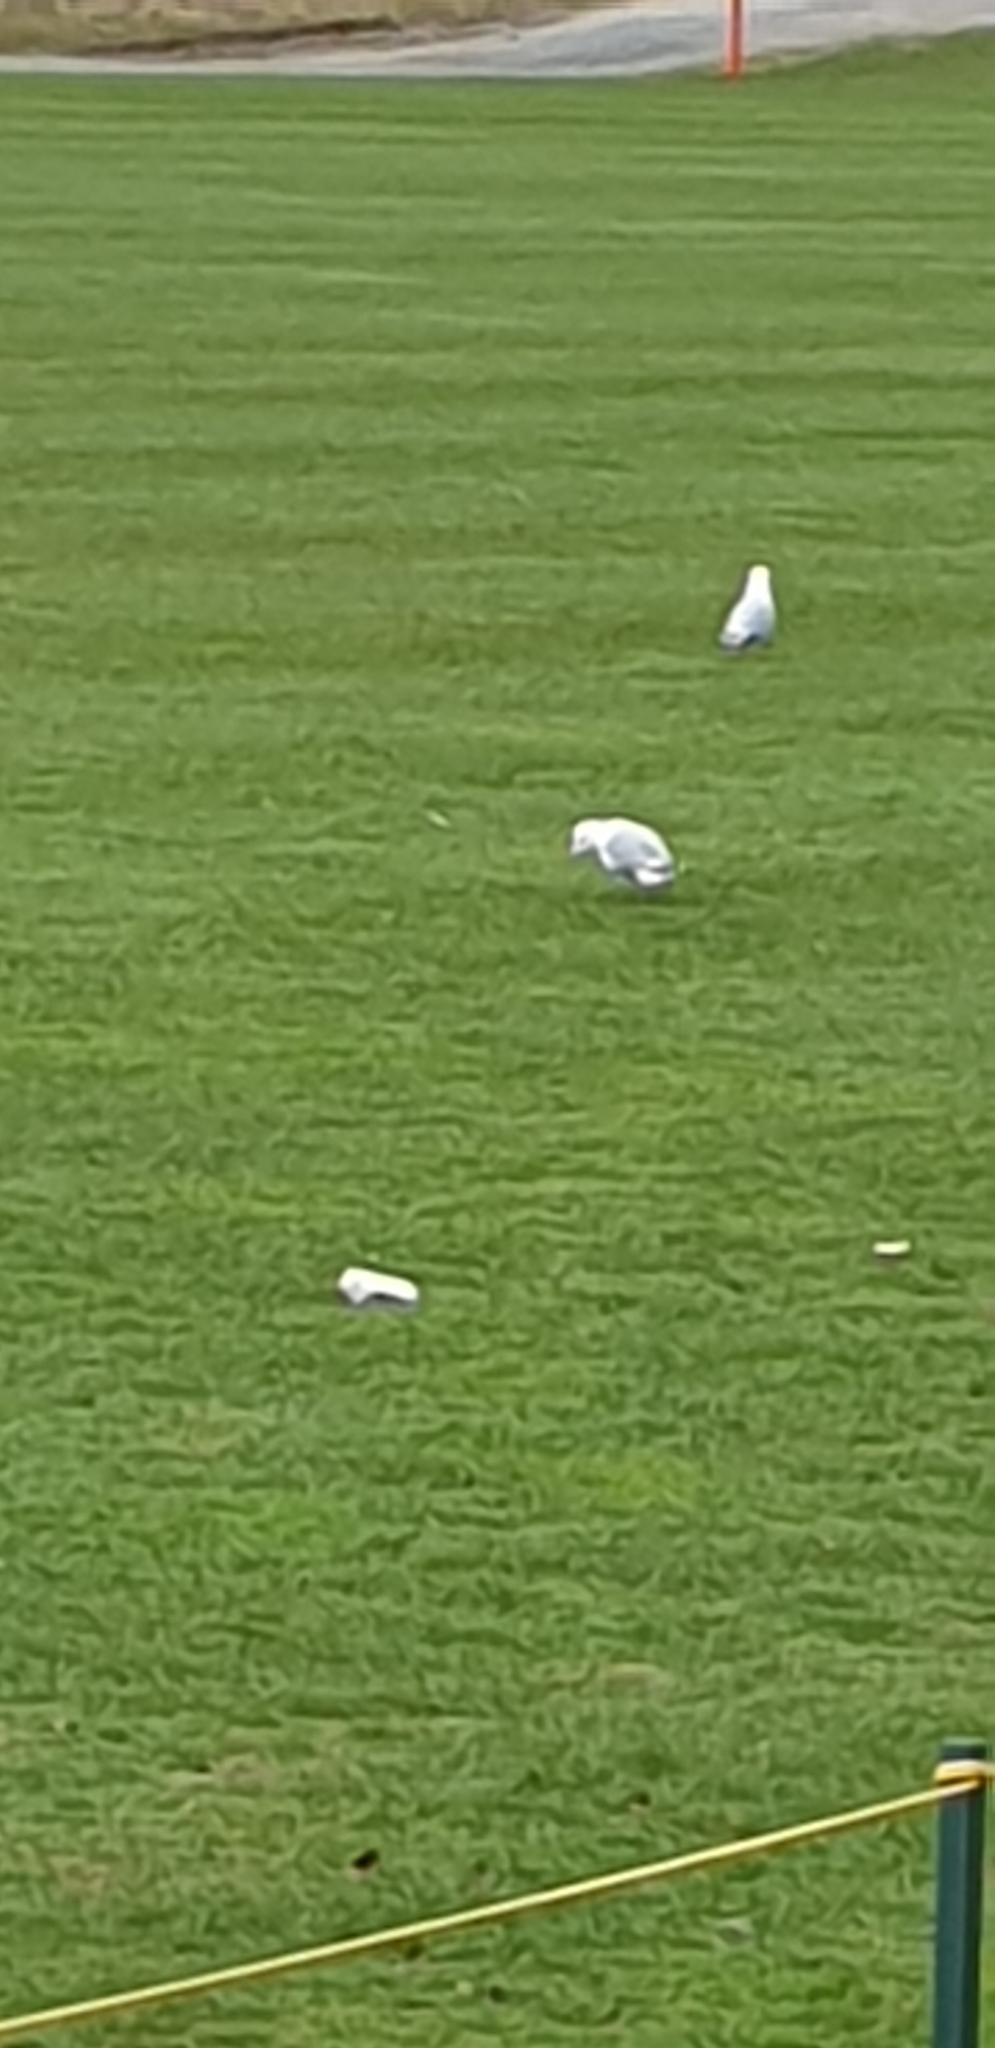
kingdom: Animalia
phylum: Chordata
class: Aves
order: Charadriiformes
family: Laridae
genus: Larus
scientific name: Larus canus
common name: Mew gull
